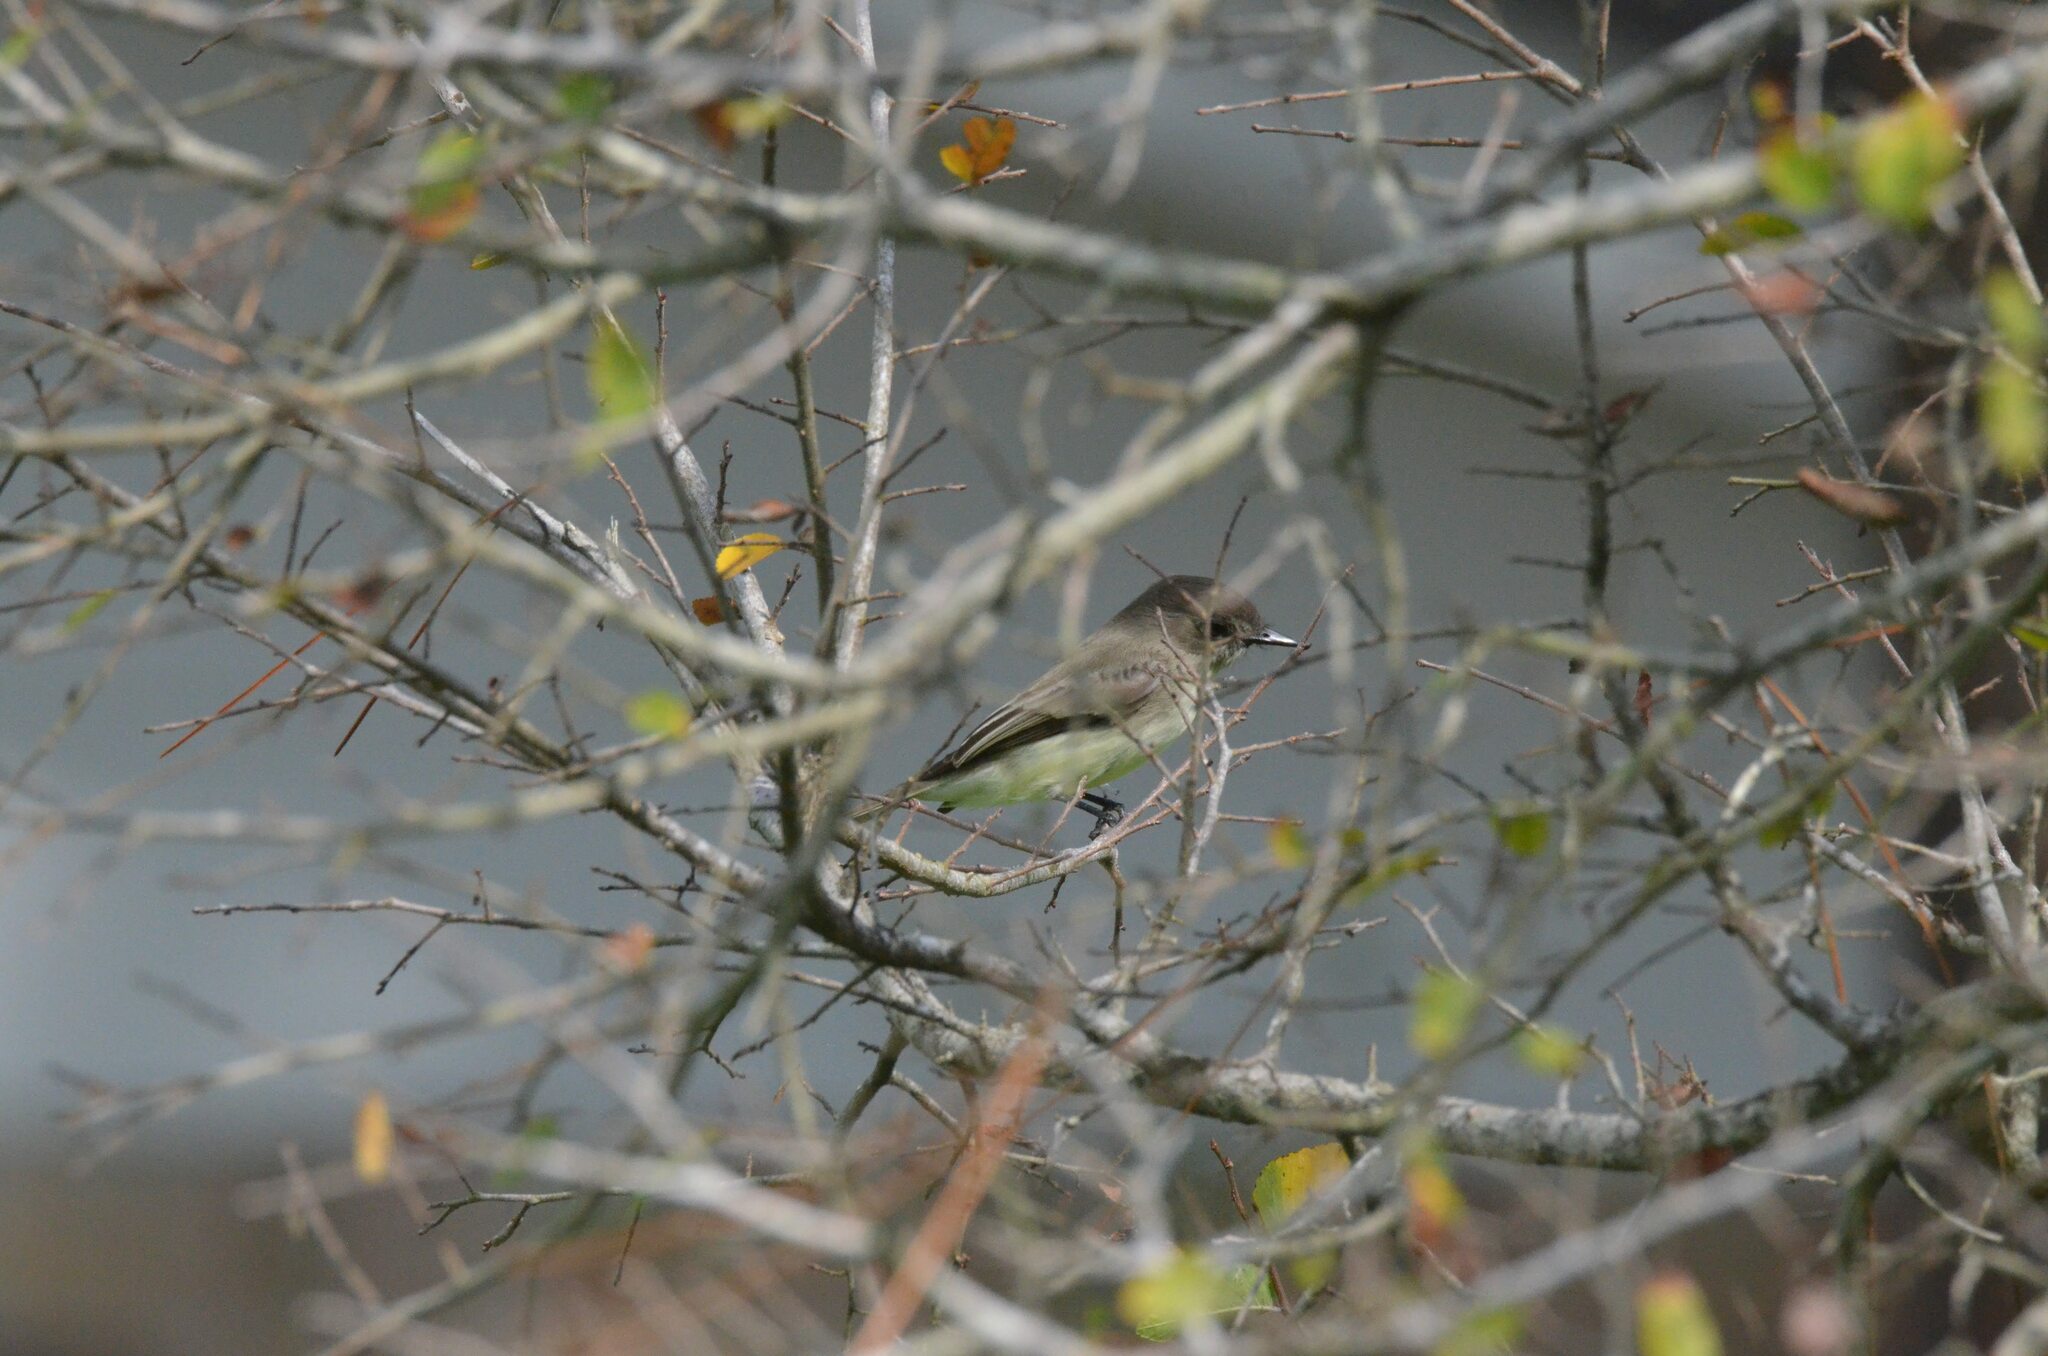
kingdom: Animalia
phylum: Chordata
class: Aves
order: Passeriformes
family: Tyrannidae
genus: Sayornis
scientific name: Sayornis phoebe
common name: Eastern phoebe
